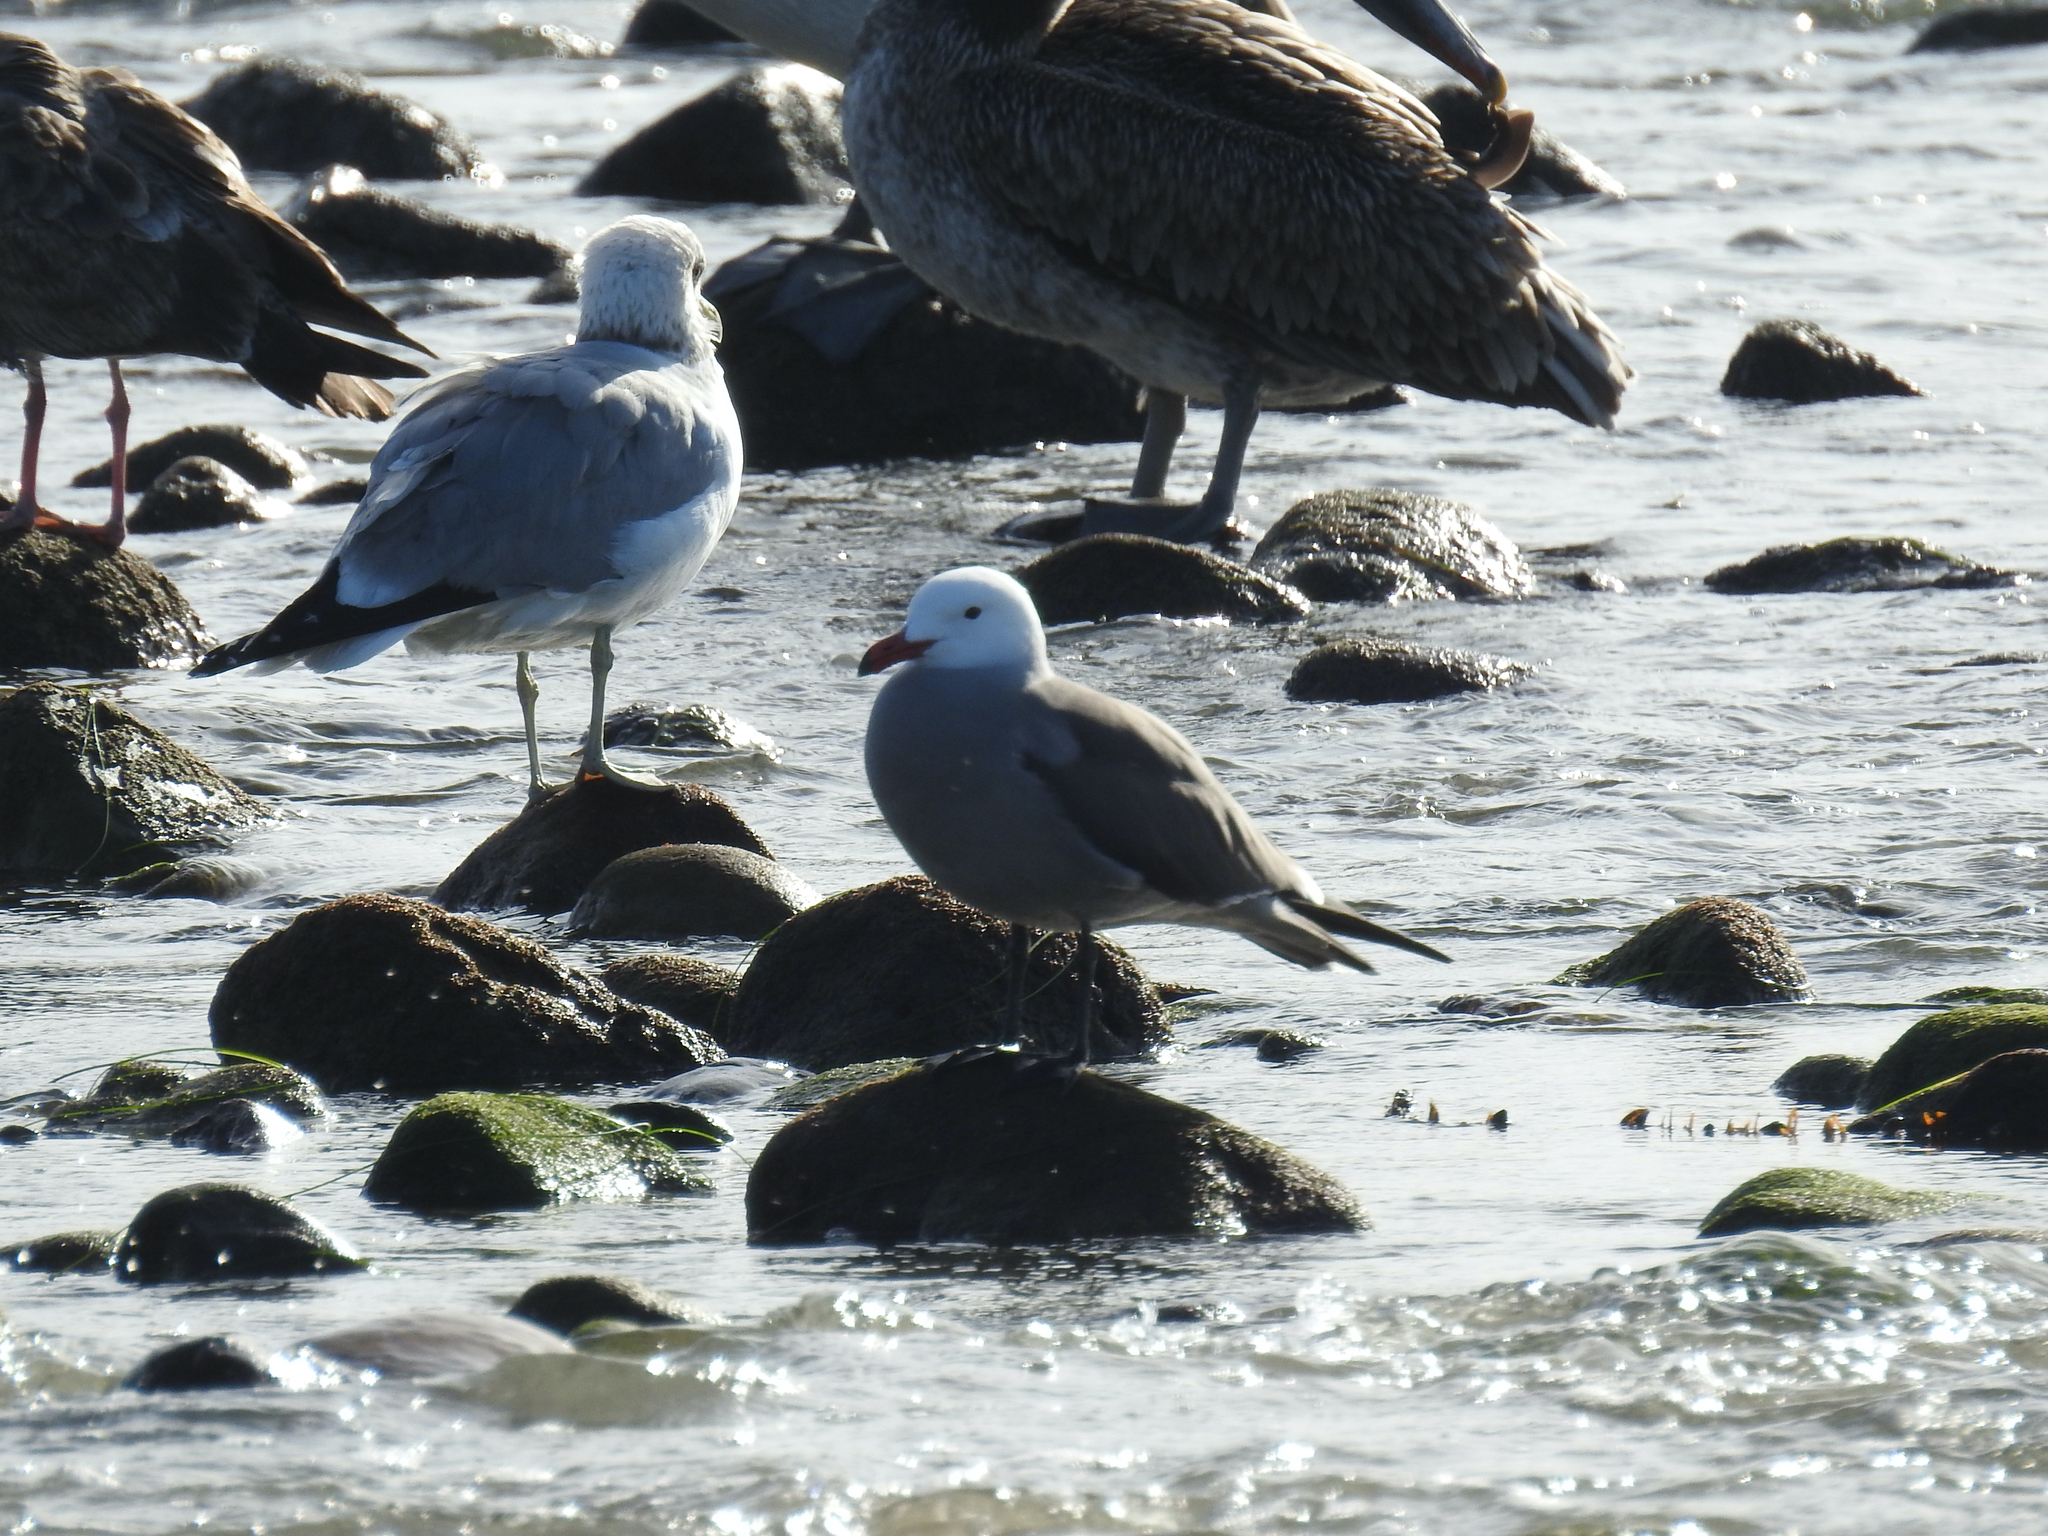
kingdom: Animalia
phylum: Chordata
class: Aves
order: Charadriiformes
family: Laridae
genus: Larus
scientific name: Larus heermanni
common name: Heermann's gull
